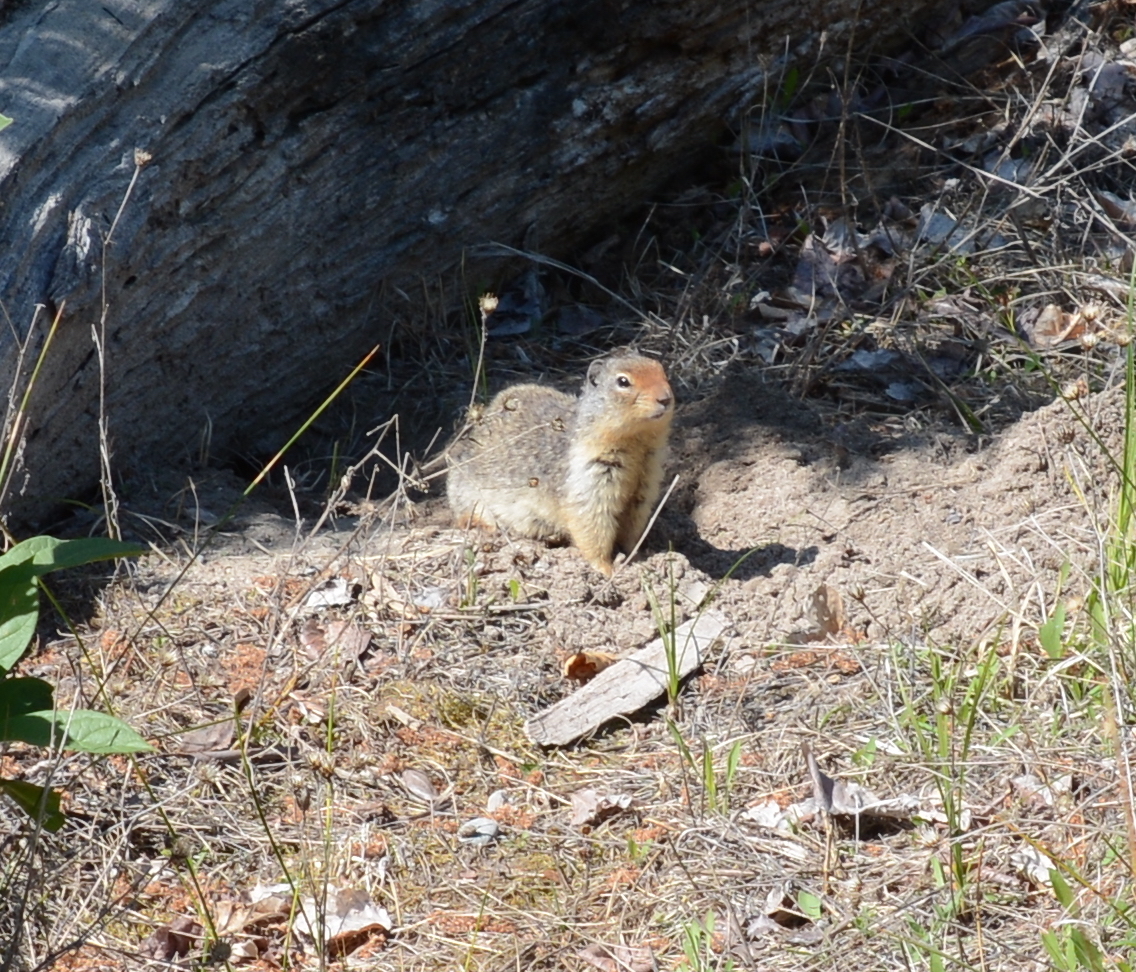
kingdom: Animalia
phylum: Chordata
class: Mammalia
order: Rodentia
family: Sciuridae
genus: Urocitellus
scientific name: Urocitellus columbianus
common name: Columbian ground squirrel
